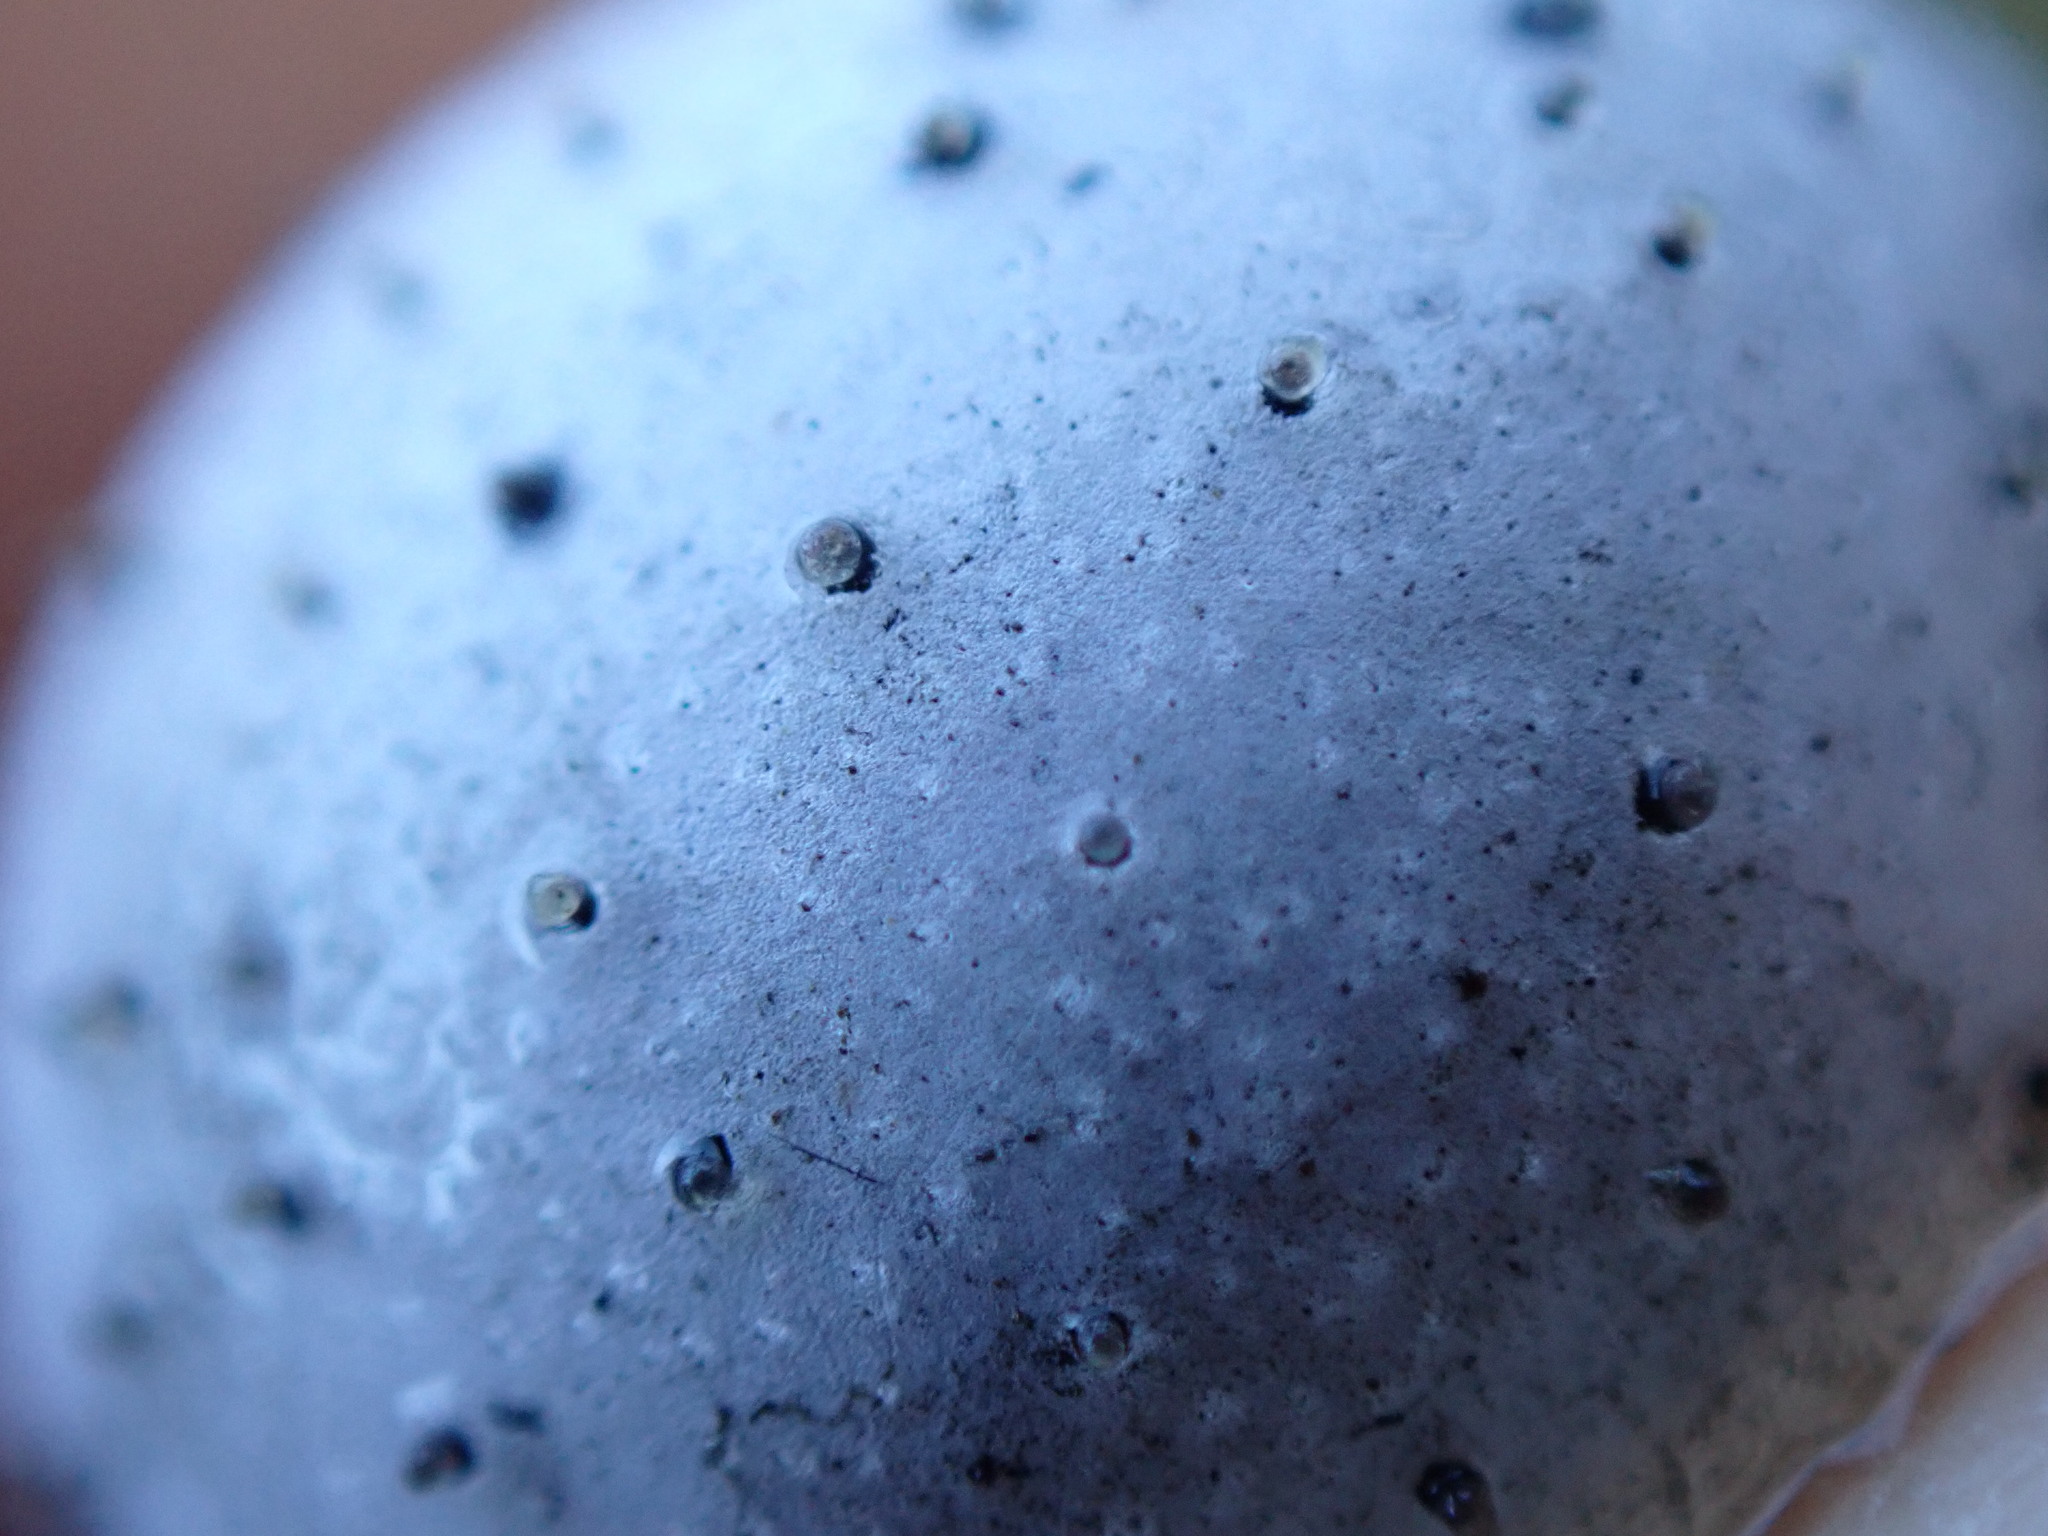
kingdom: Plantae
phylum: Tracheophyta
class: Magnoliopsida
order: Saxifragales
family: Grossulariaceae
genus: Ribes
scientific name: Ribes sanguineum
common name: Flowering currant
